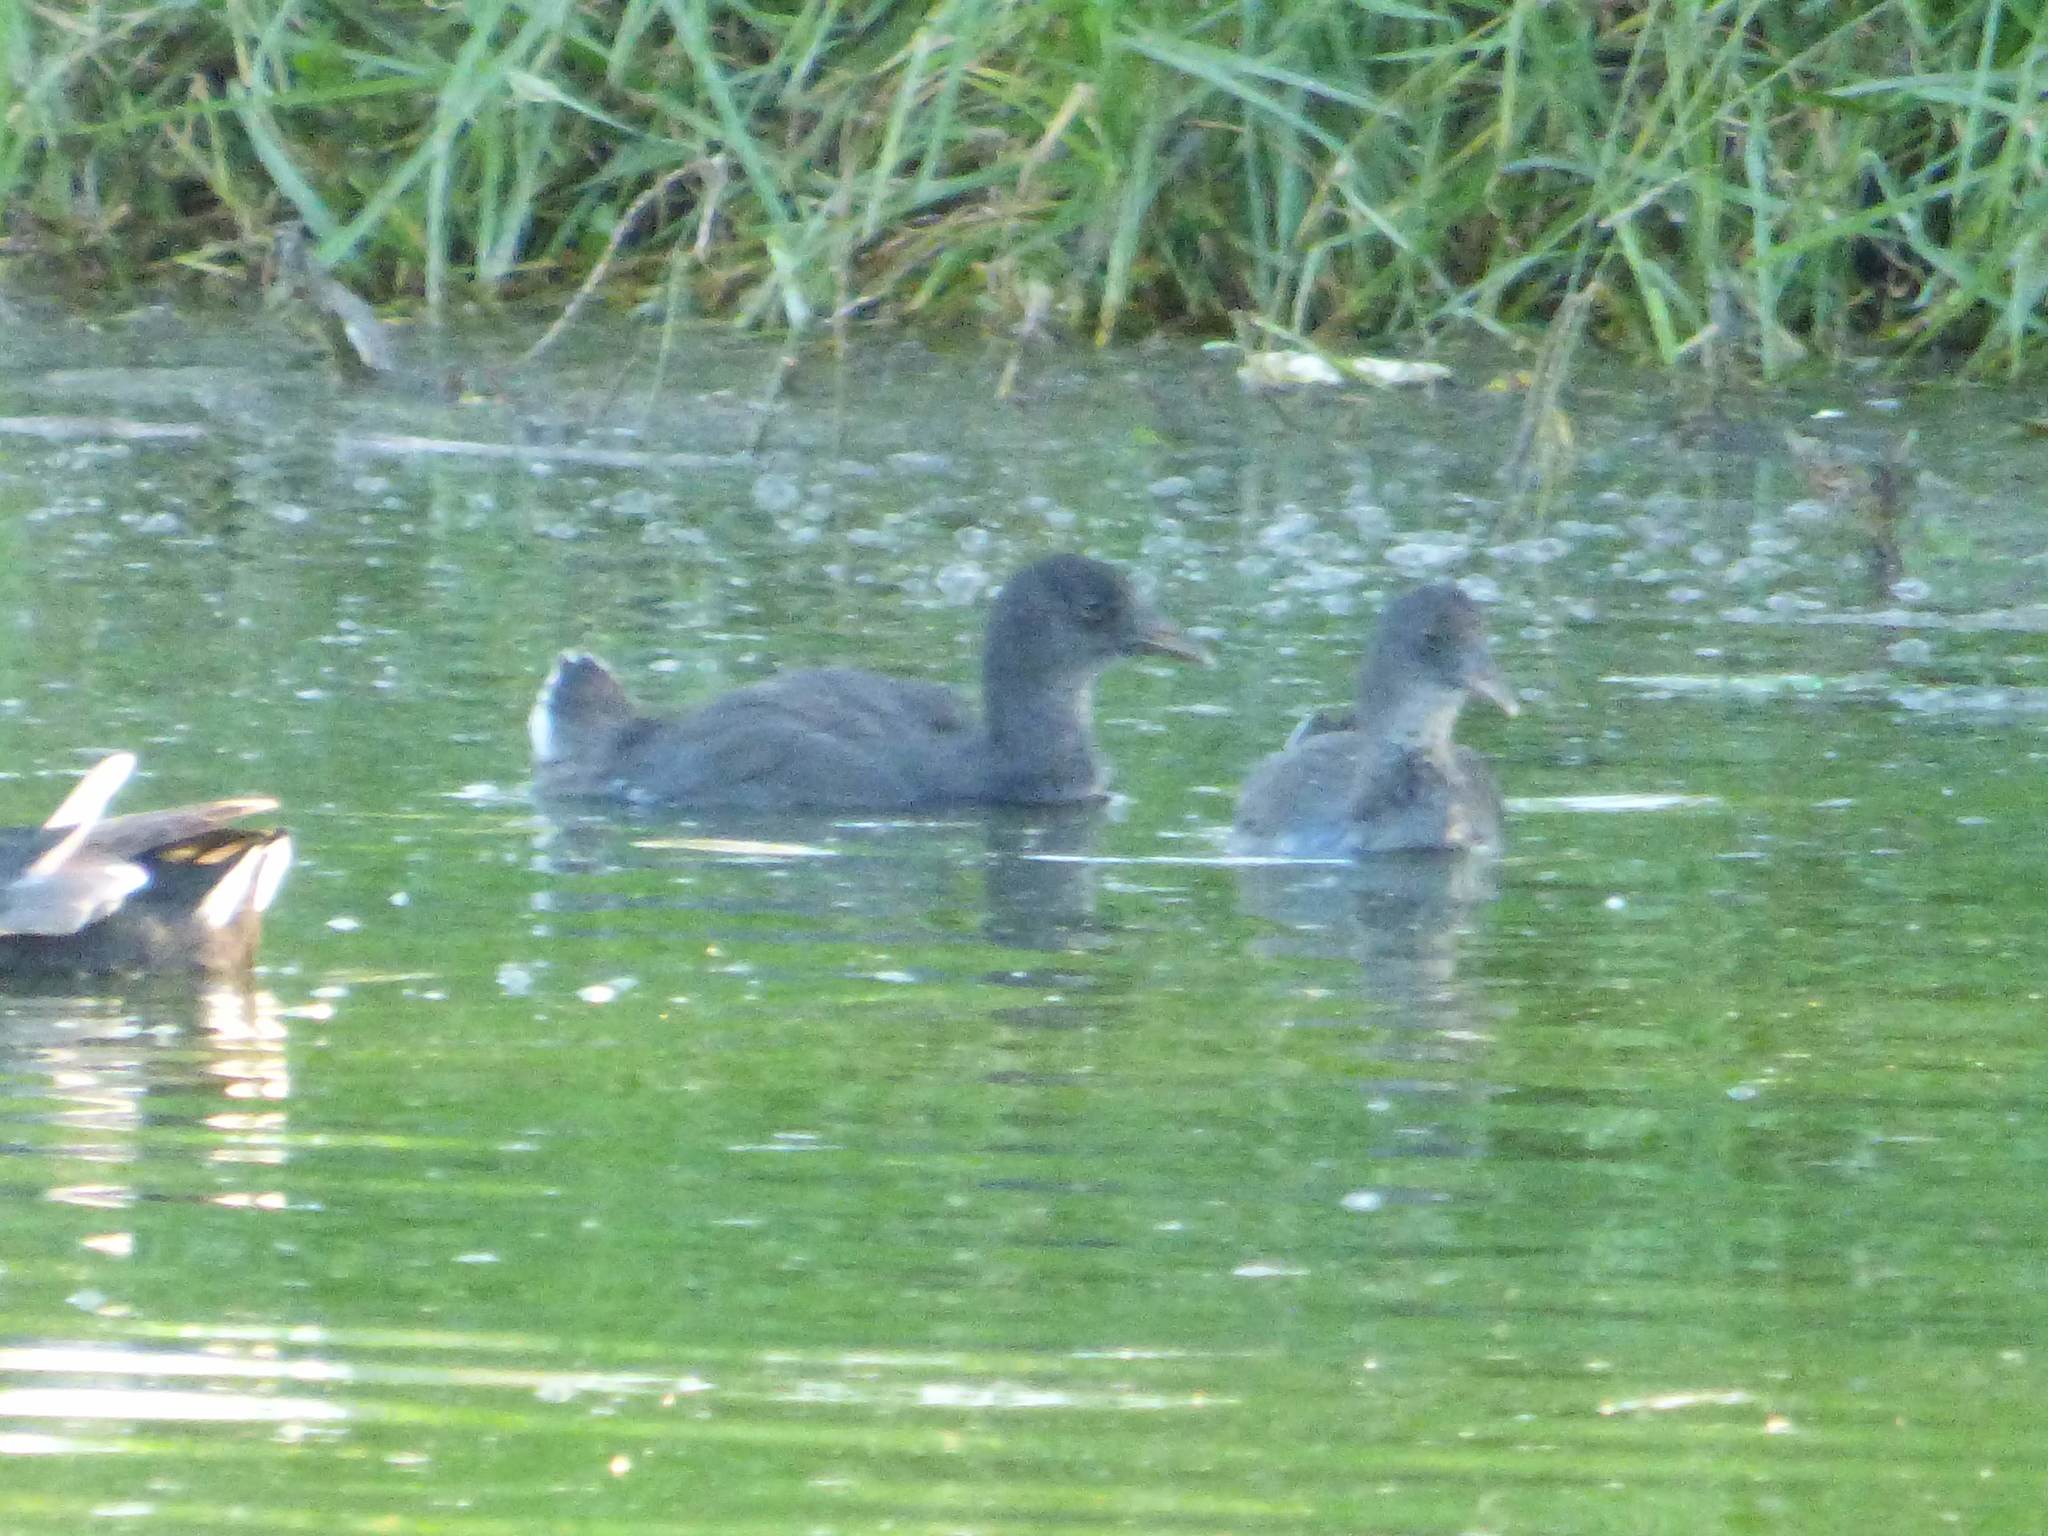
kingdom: Animalia
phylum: Chordata
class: Aves
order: Gruiformes
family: Rallidae
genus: Fulica
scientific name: Fulica leucoptera
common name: White-winged coot
